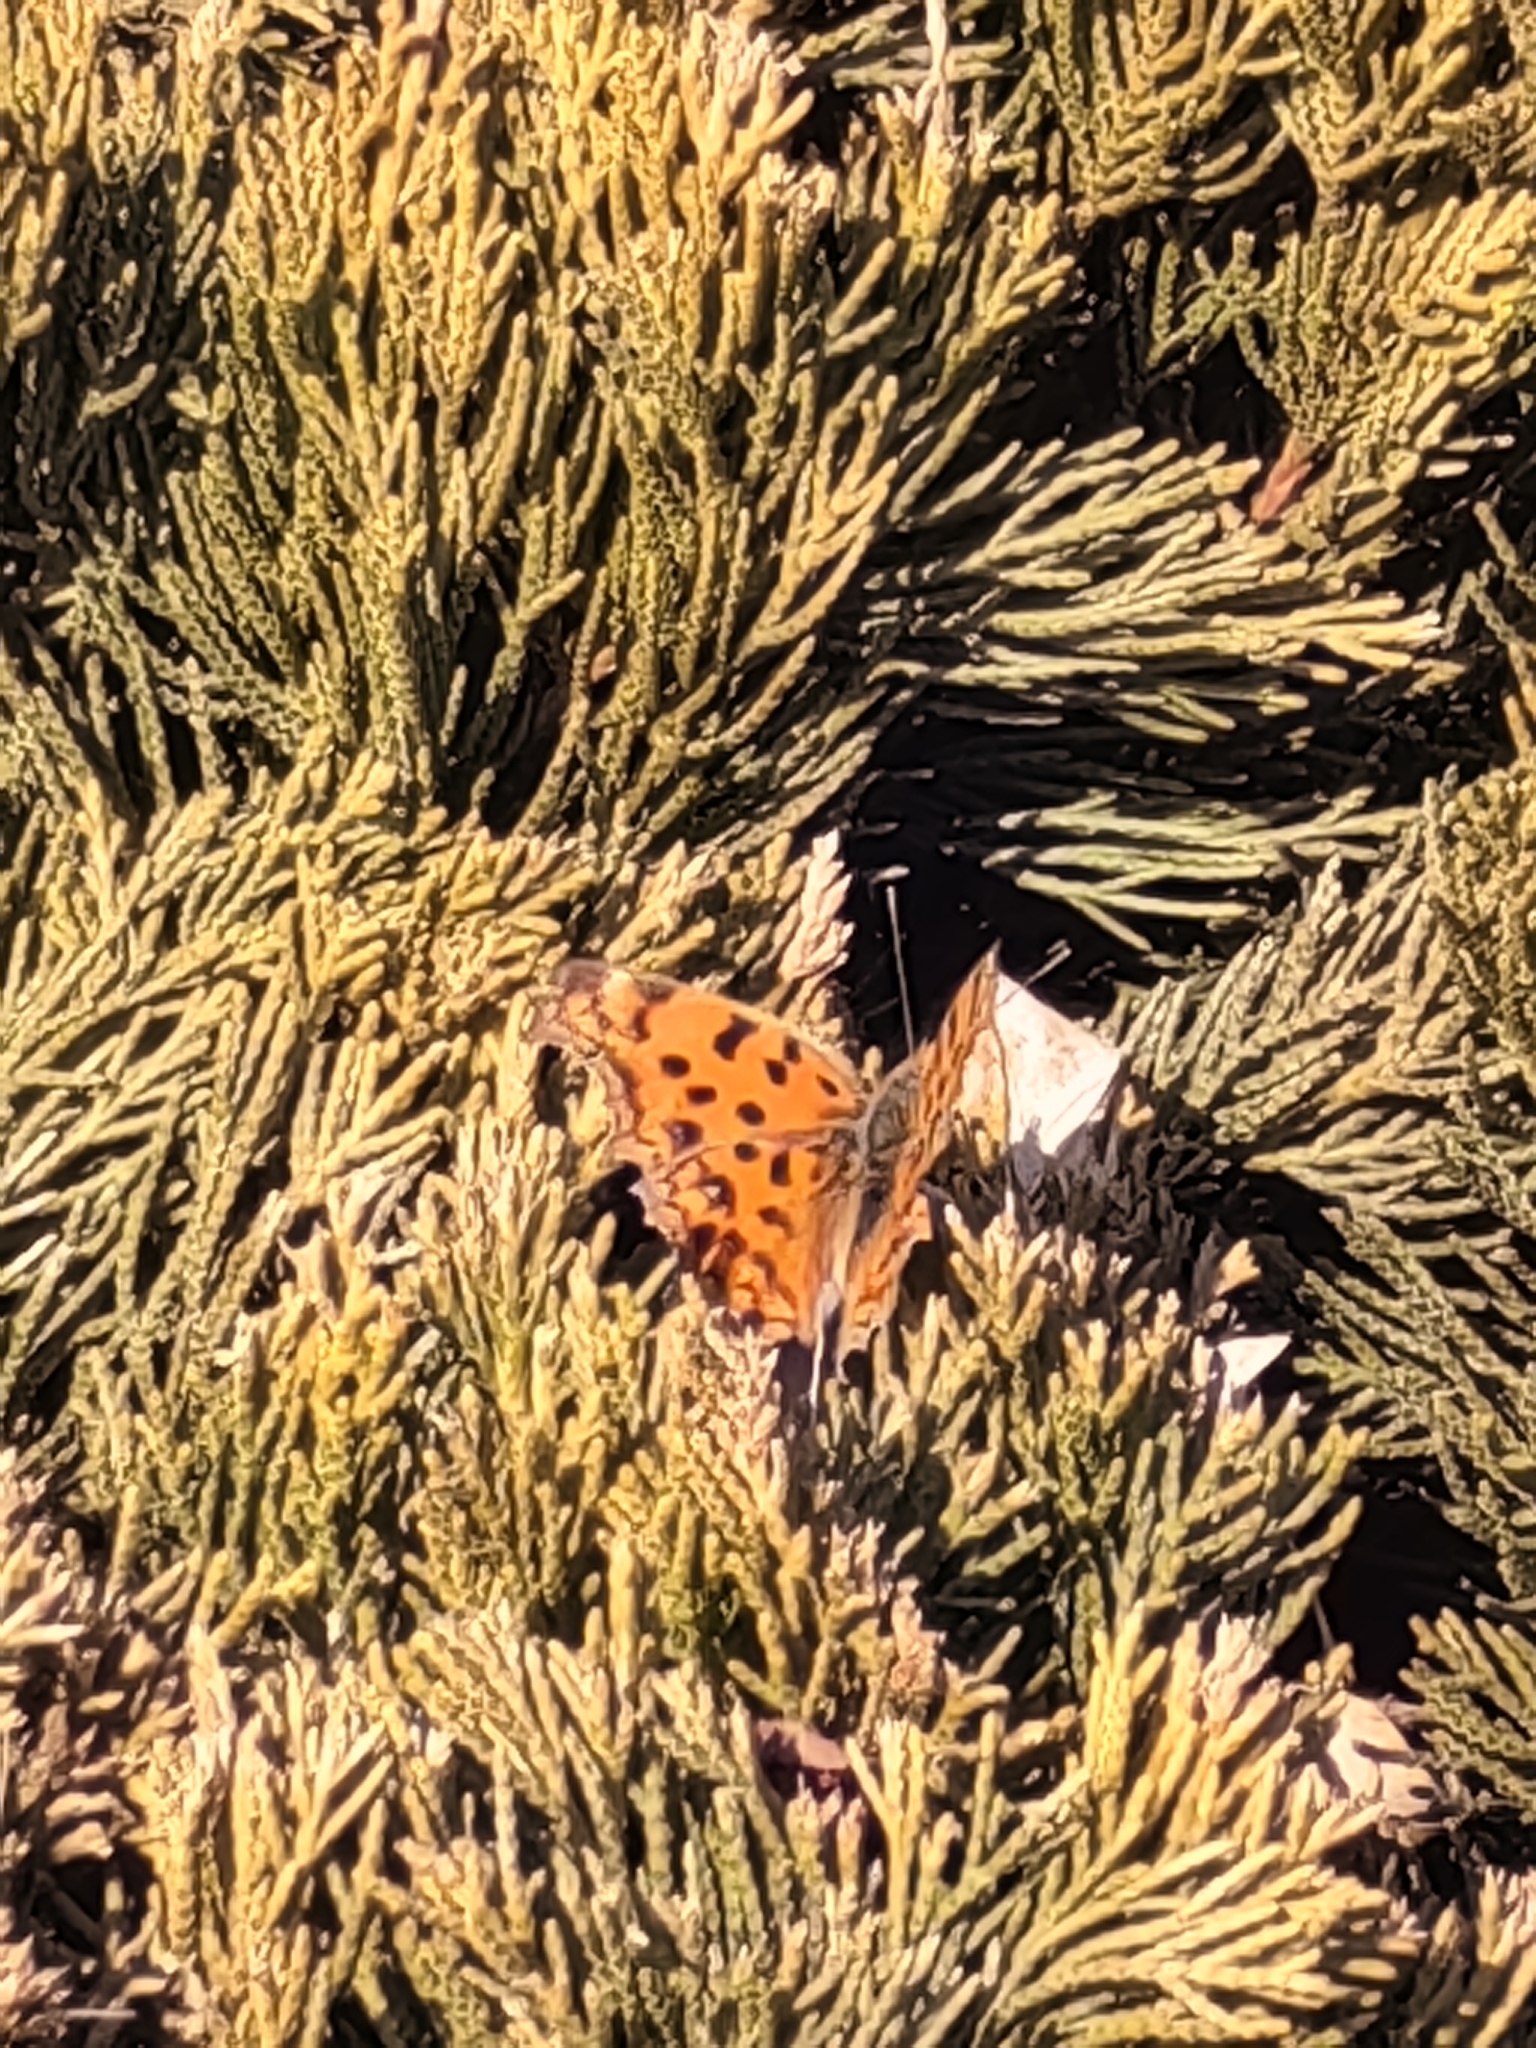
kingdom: Animalia
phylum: Arthropoda
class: Insecta
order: Lepidoptera
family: Nymphalidae
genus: Polygonia
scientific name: Polygonia c-aureum
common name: Asian comma
